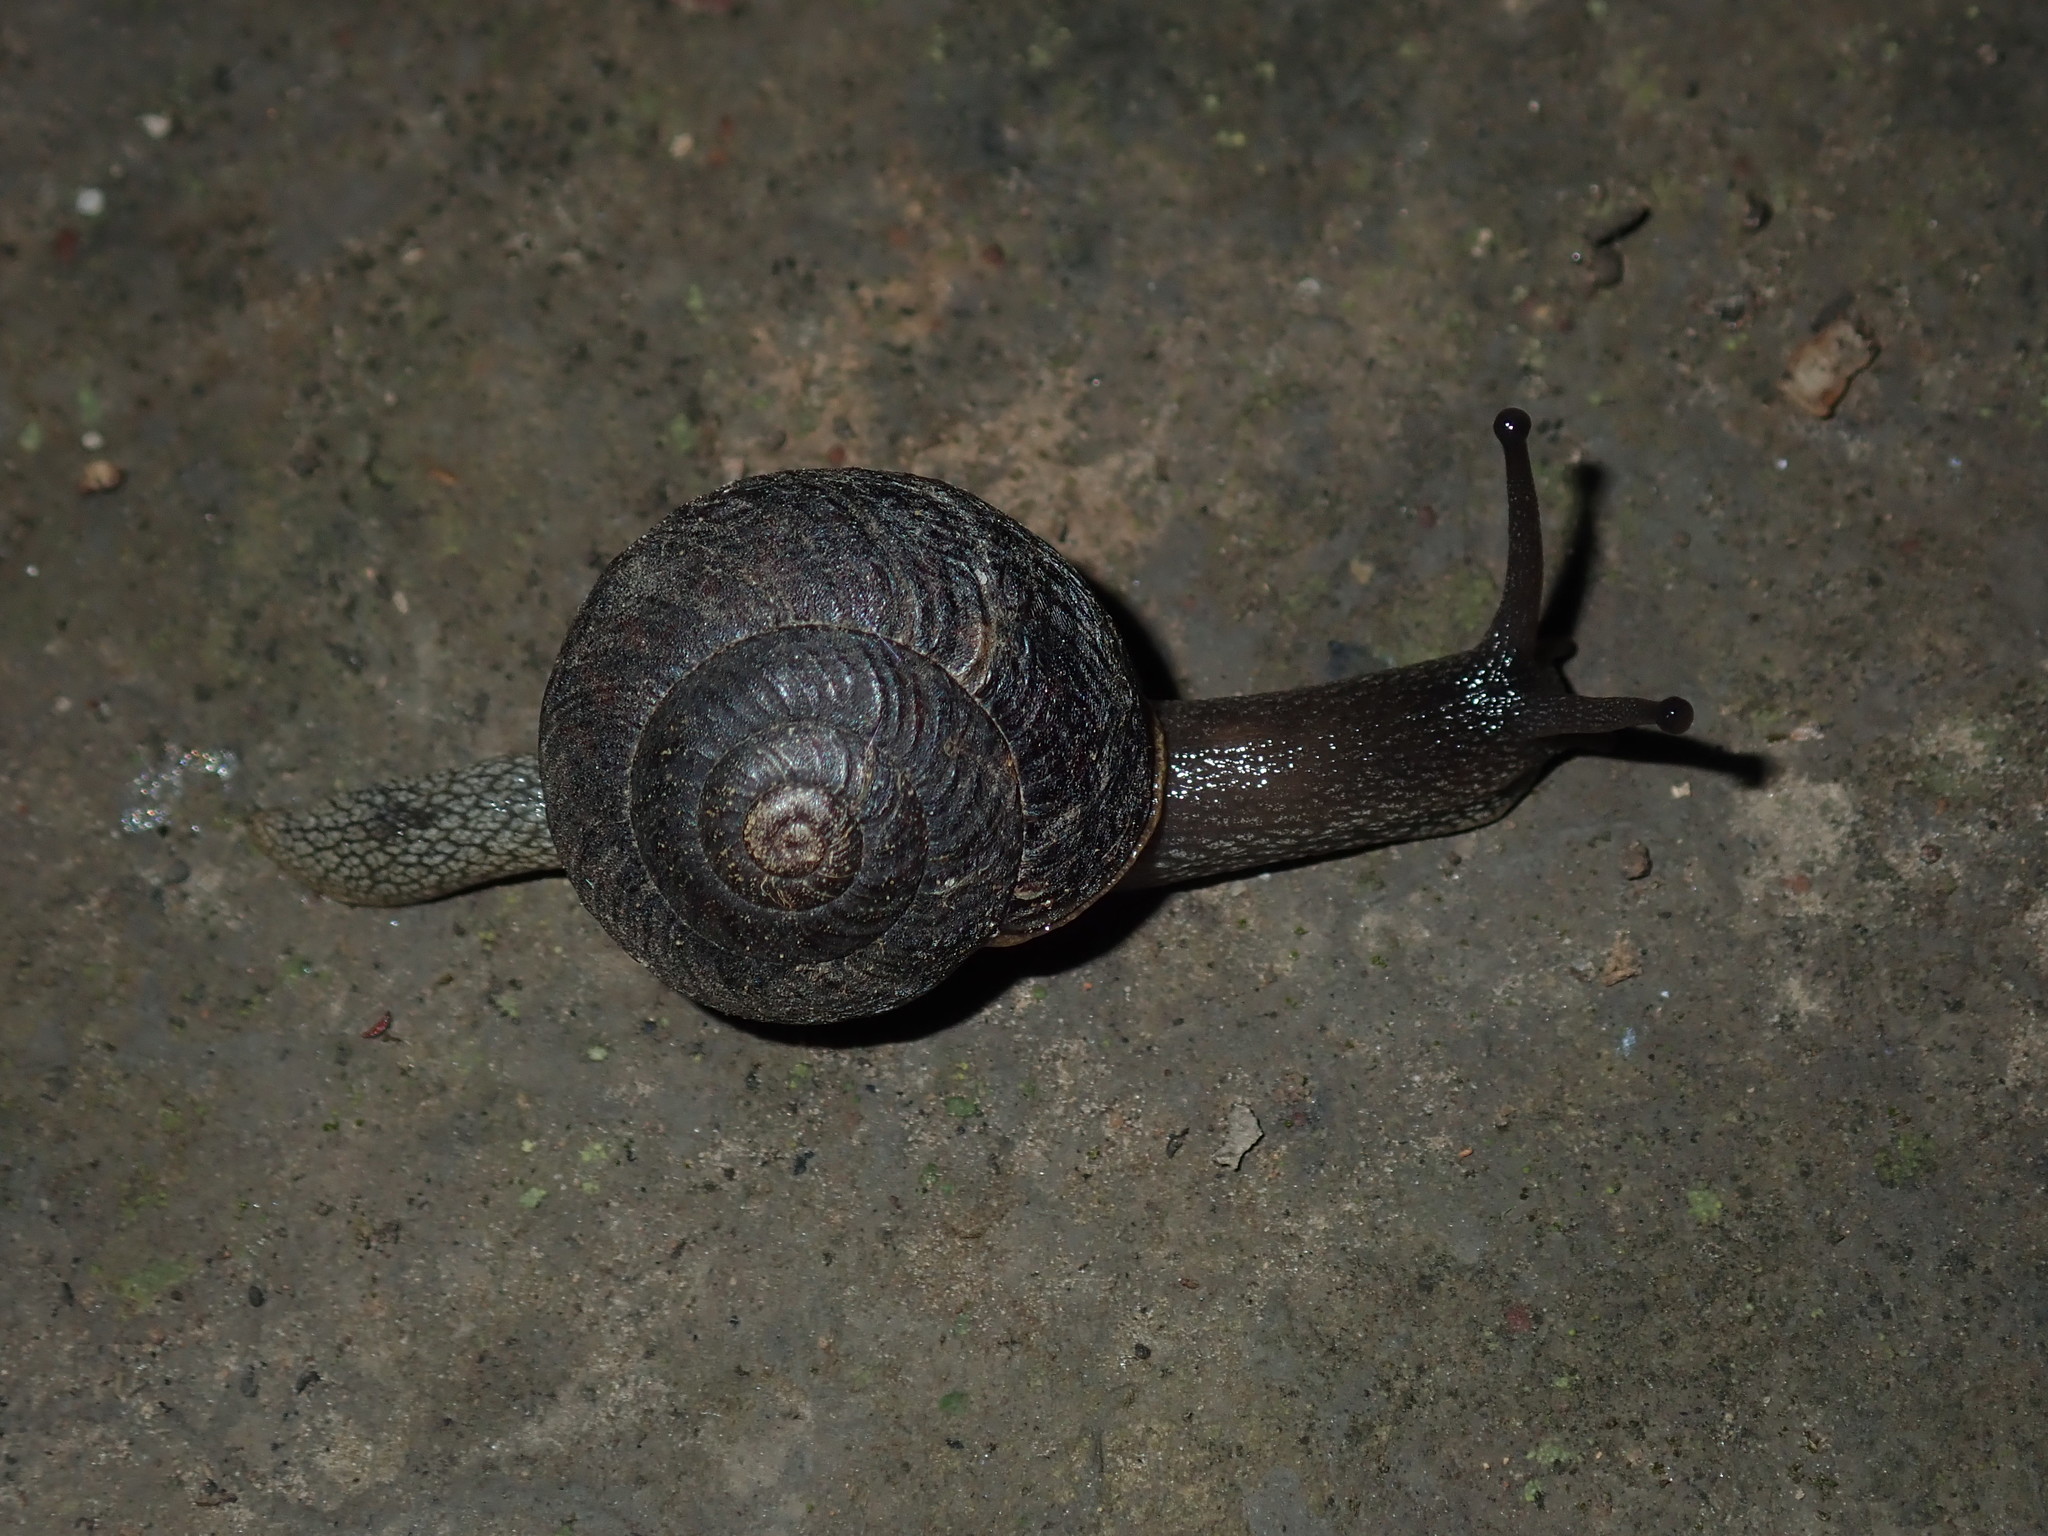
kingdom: Animalia
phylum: Mollusca
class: Gastropoda
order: Stylommatophora
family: Camaenidae
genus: Sauroconcha
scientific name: Sauroconcha sheai
